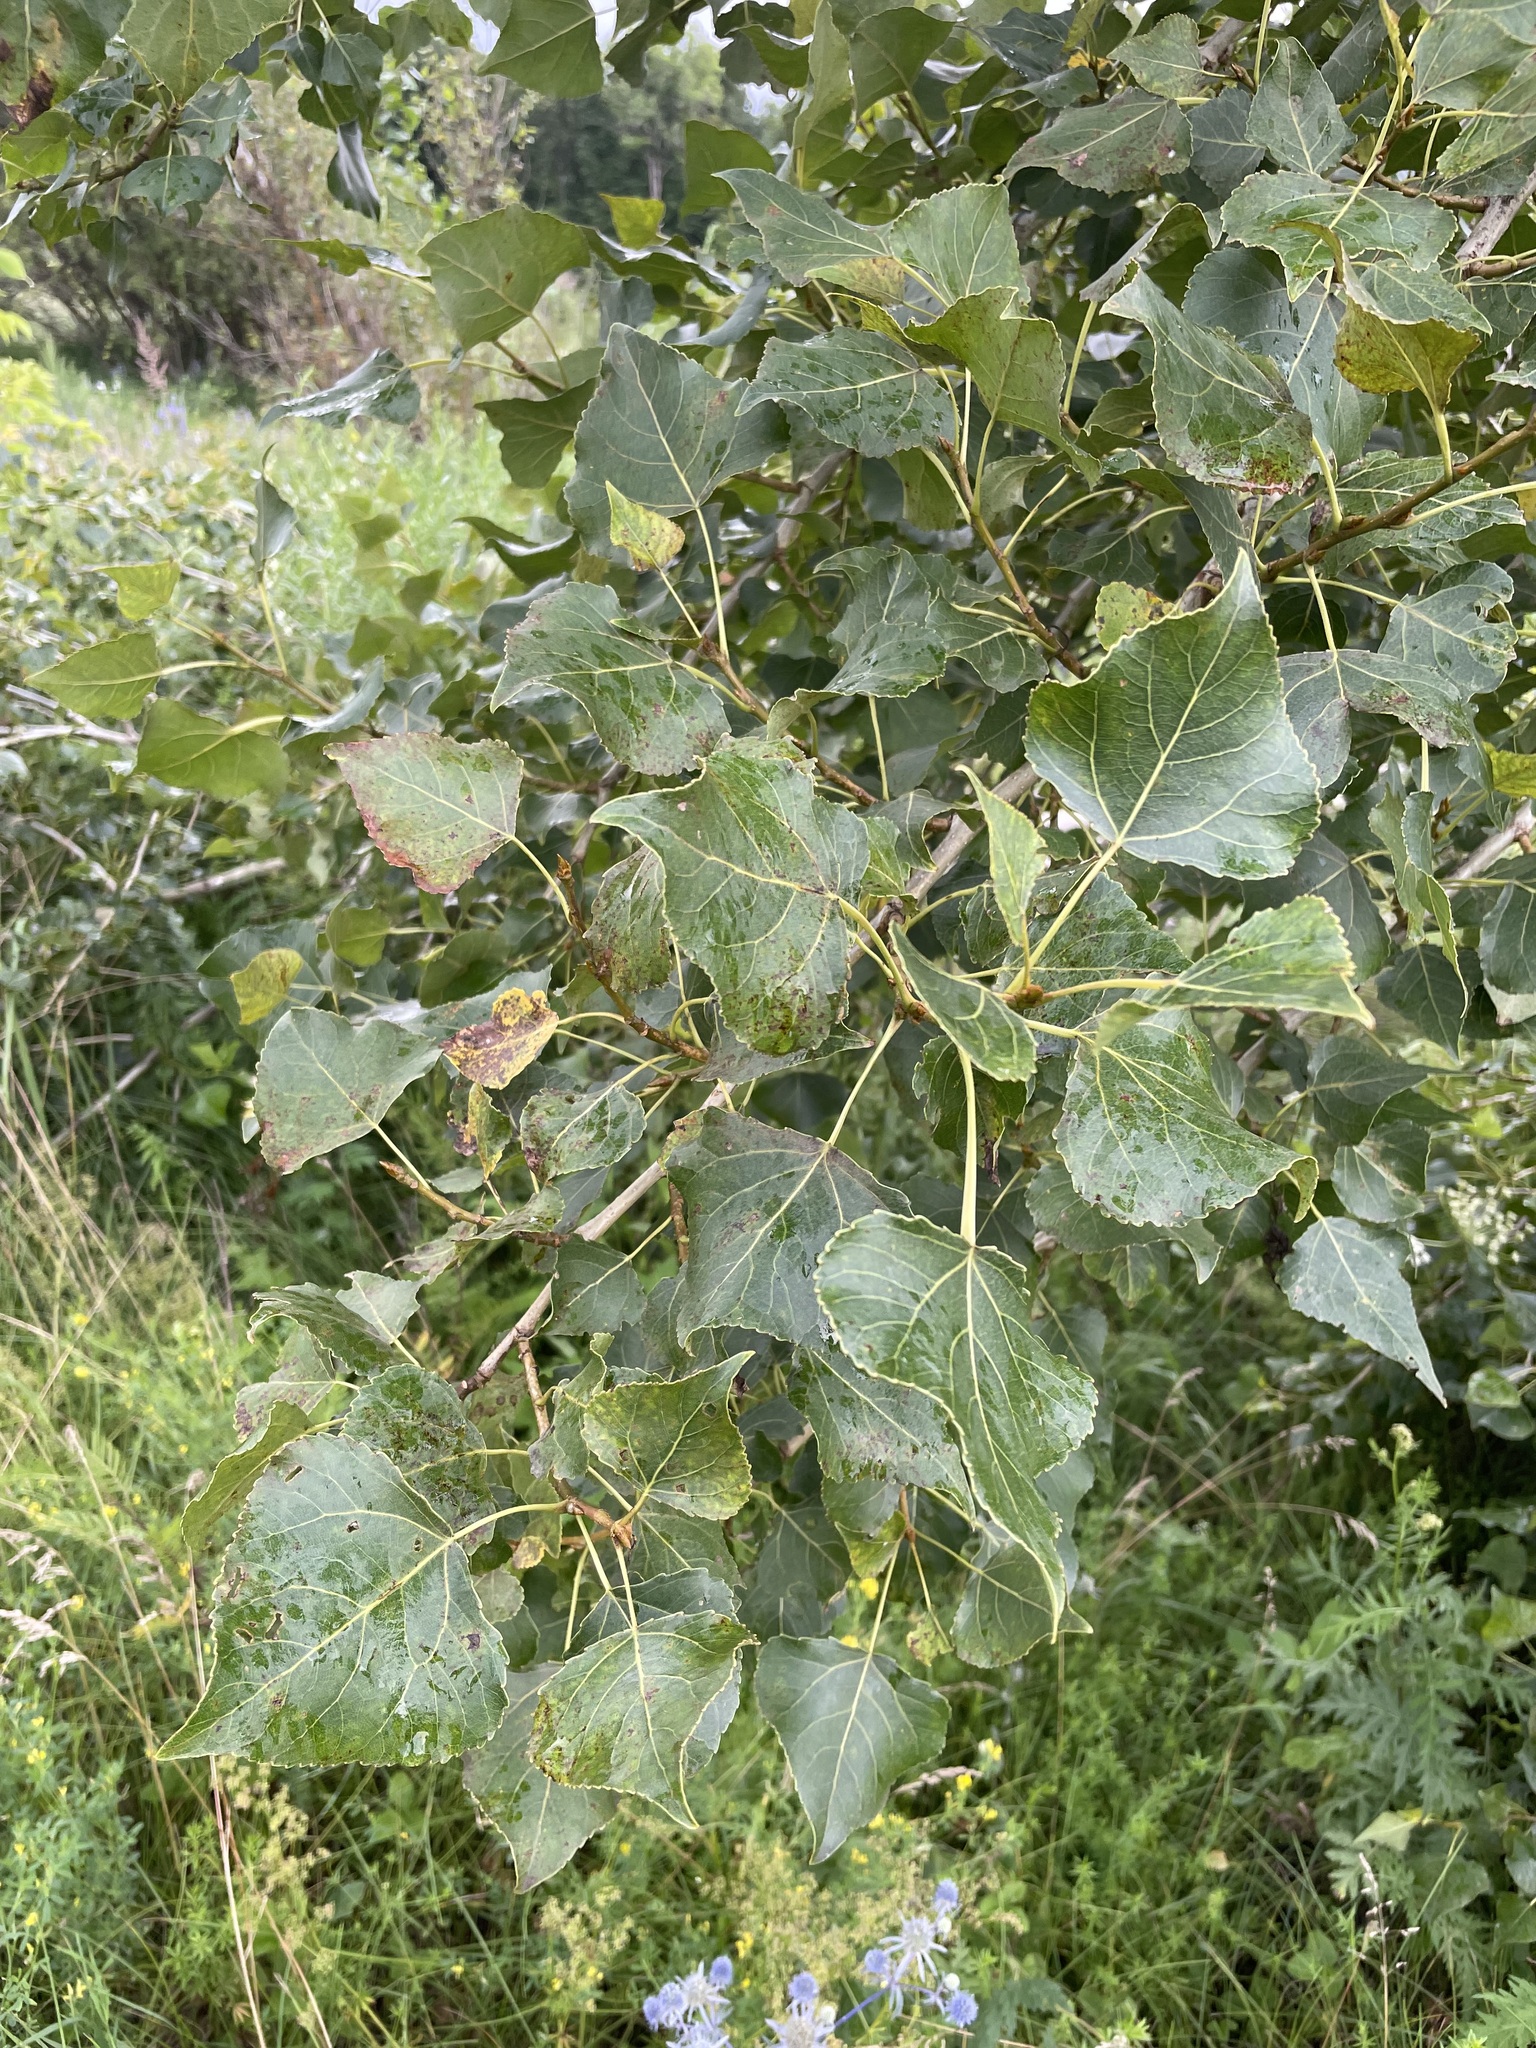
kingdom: Plantae
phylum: Tracheophyta
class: Magnoliopsida
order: Malpighiales
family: Salicaceae
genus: Populus
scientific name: Populus nigra
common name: Black poplar
